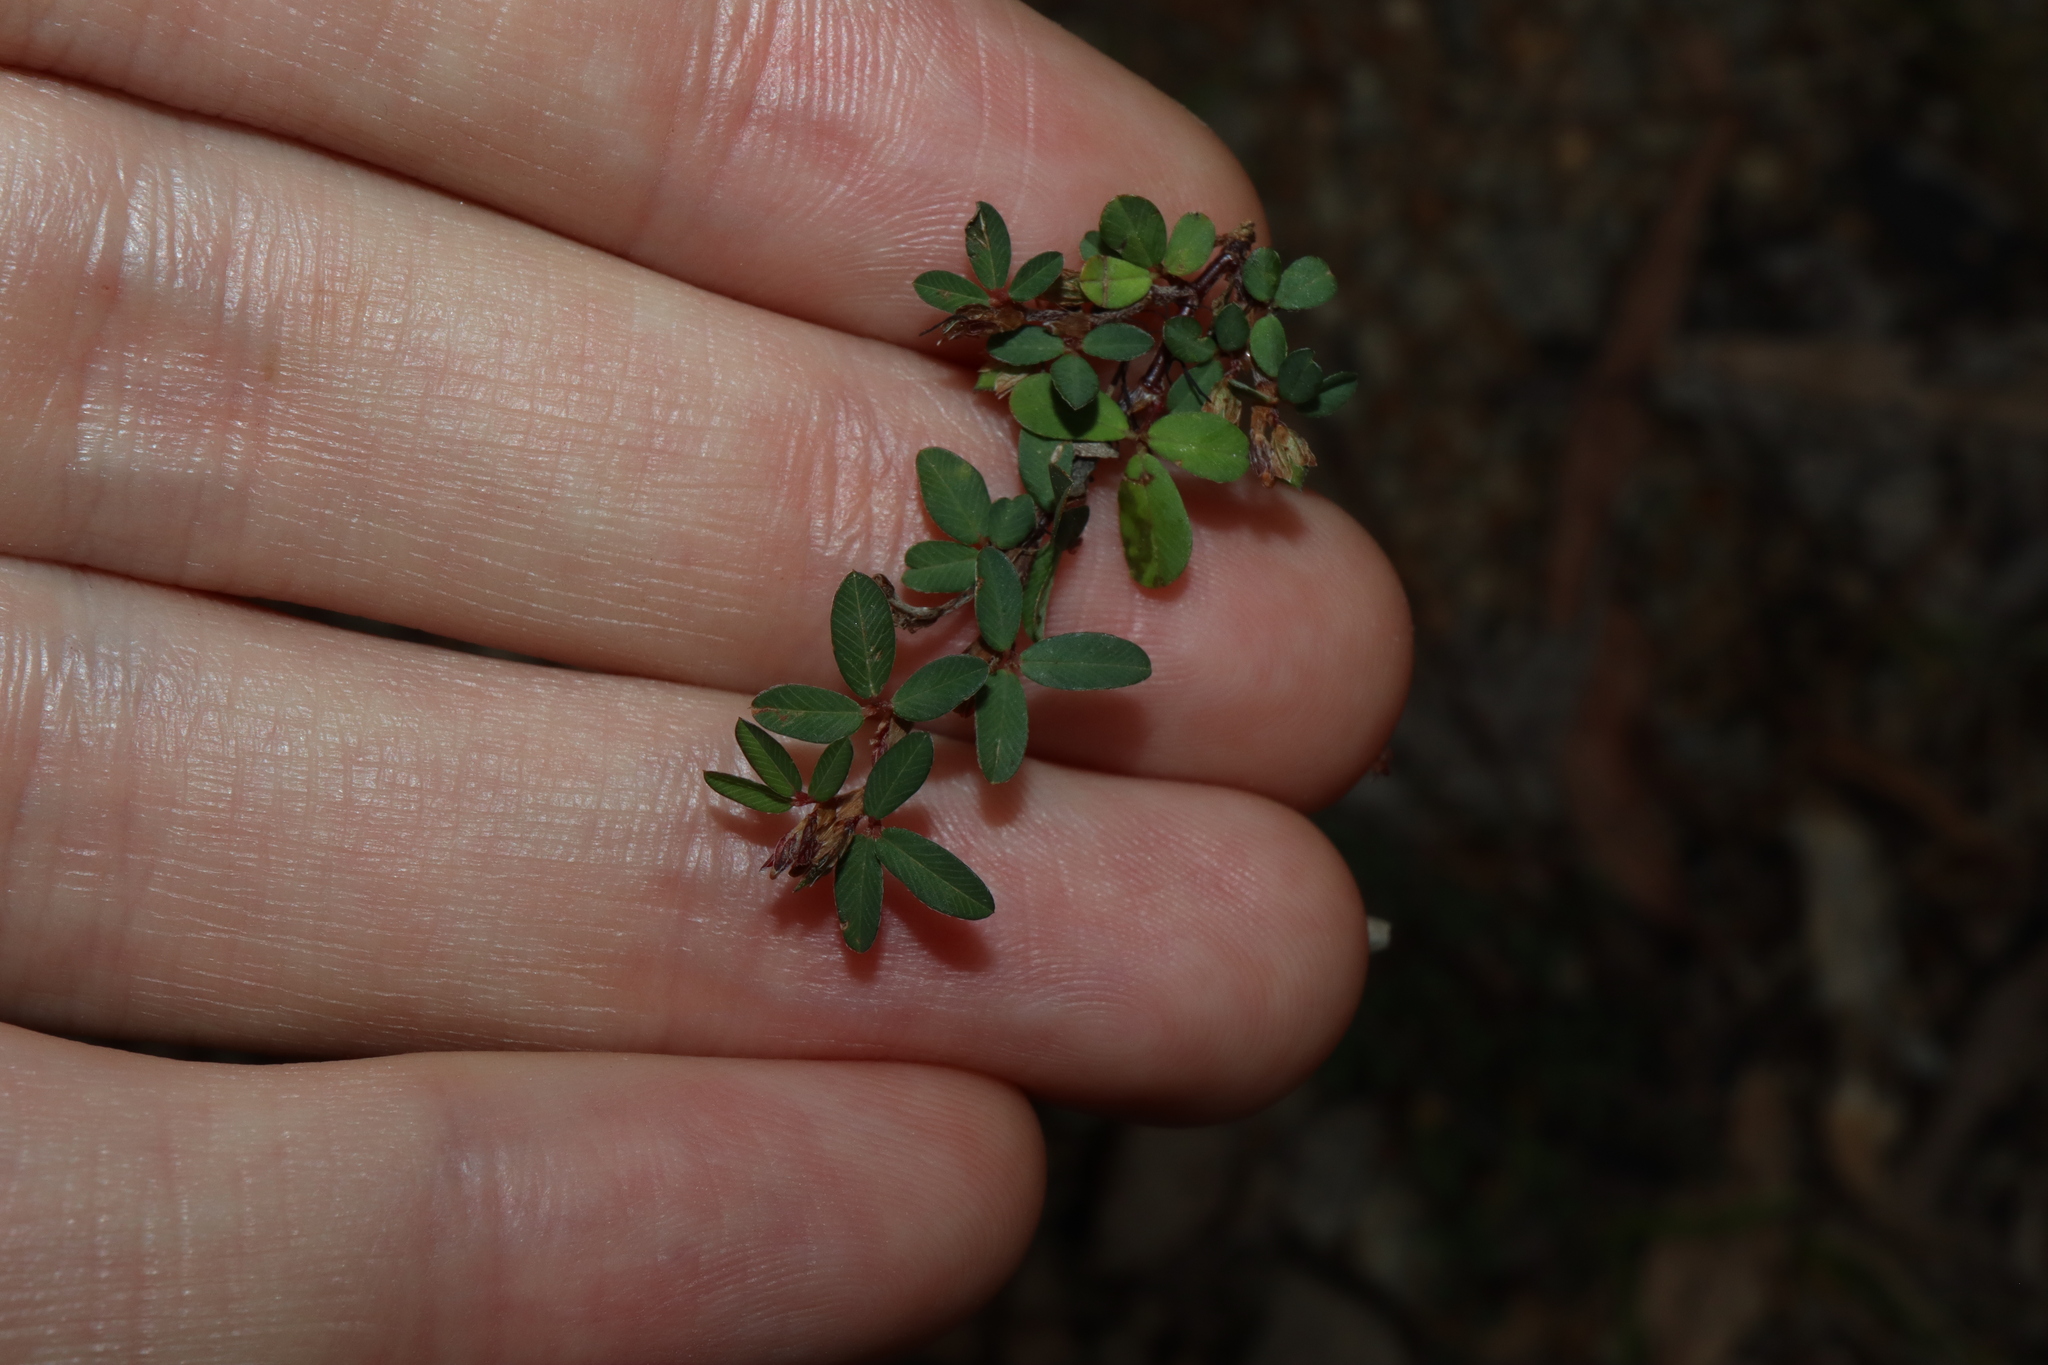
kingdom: Plantae
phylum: Tracheophyta
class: Magnoliopsida
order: Fabales
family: Fabaceae
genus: Kummerowia
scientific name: Kummerowia striata
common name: Japanese clover
